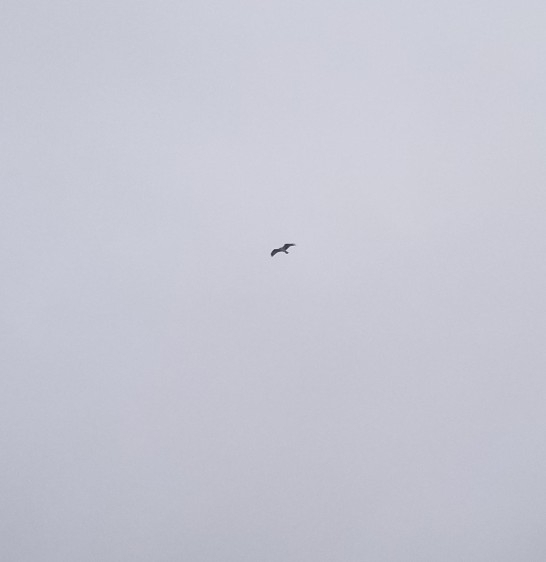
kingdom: Animalia
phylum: Chordata
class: Aves
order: Accipitriformes
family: Pandionidae
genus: Pandion
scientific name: Pandion haliaetus
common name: Osprey
